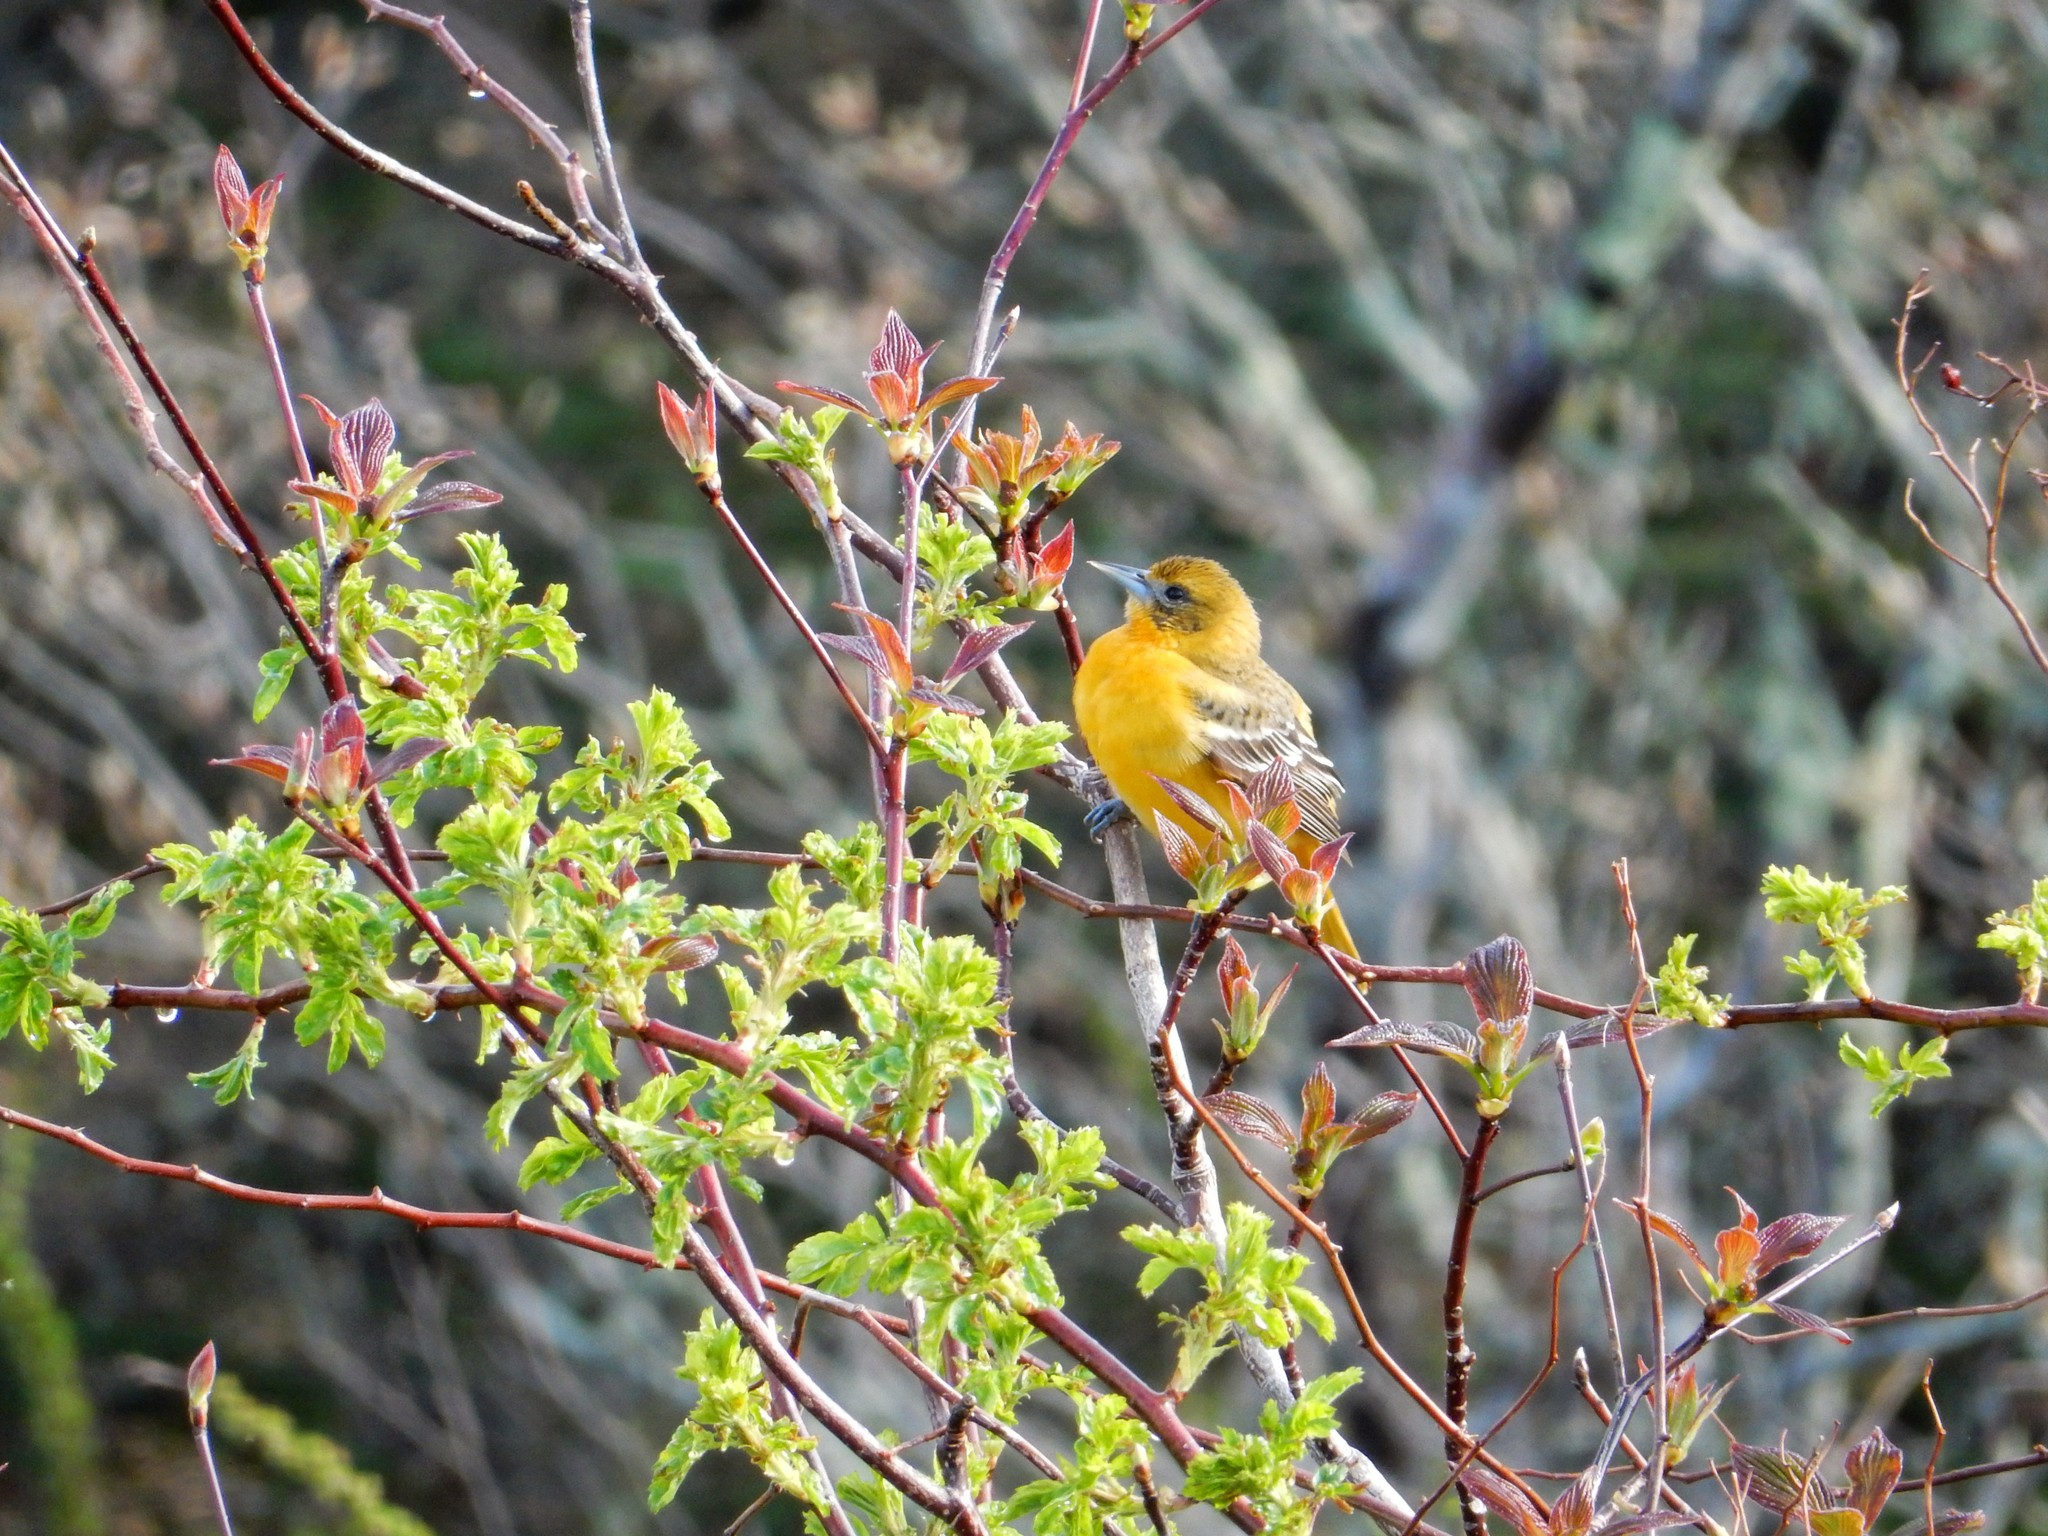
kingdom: Animalia
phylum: Chordata
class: Aves
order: Passeriformes
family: Icteridae
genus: Icterus
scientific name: Icterus galbula
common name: Baltimore oriole
